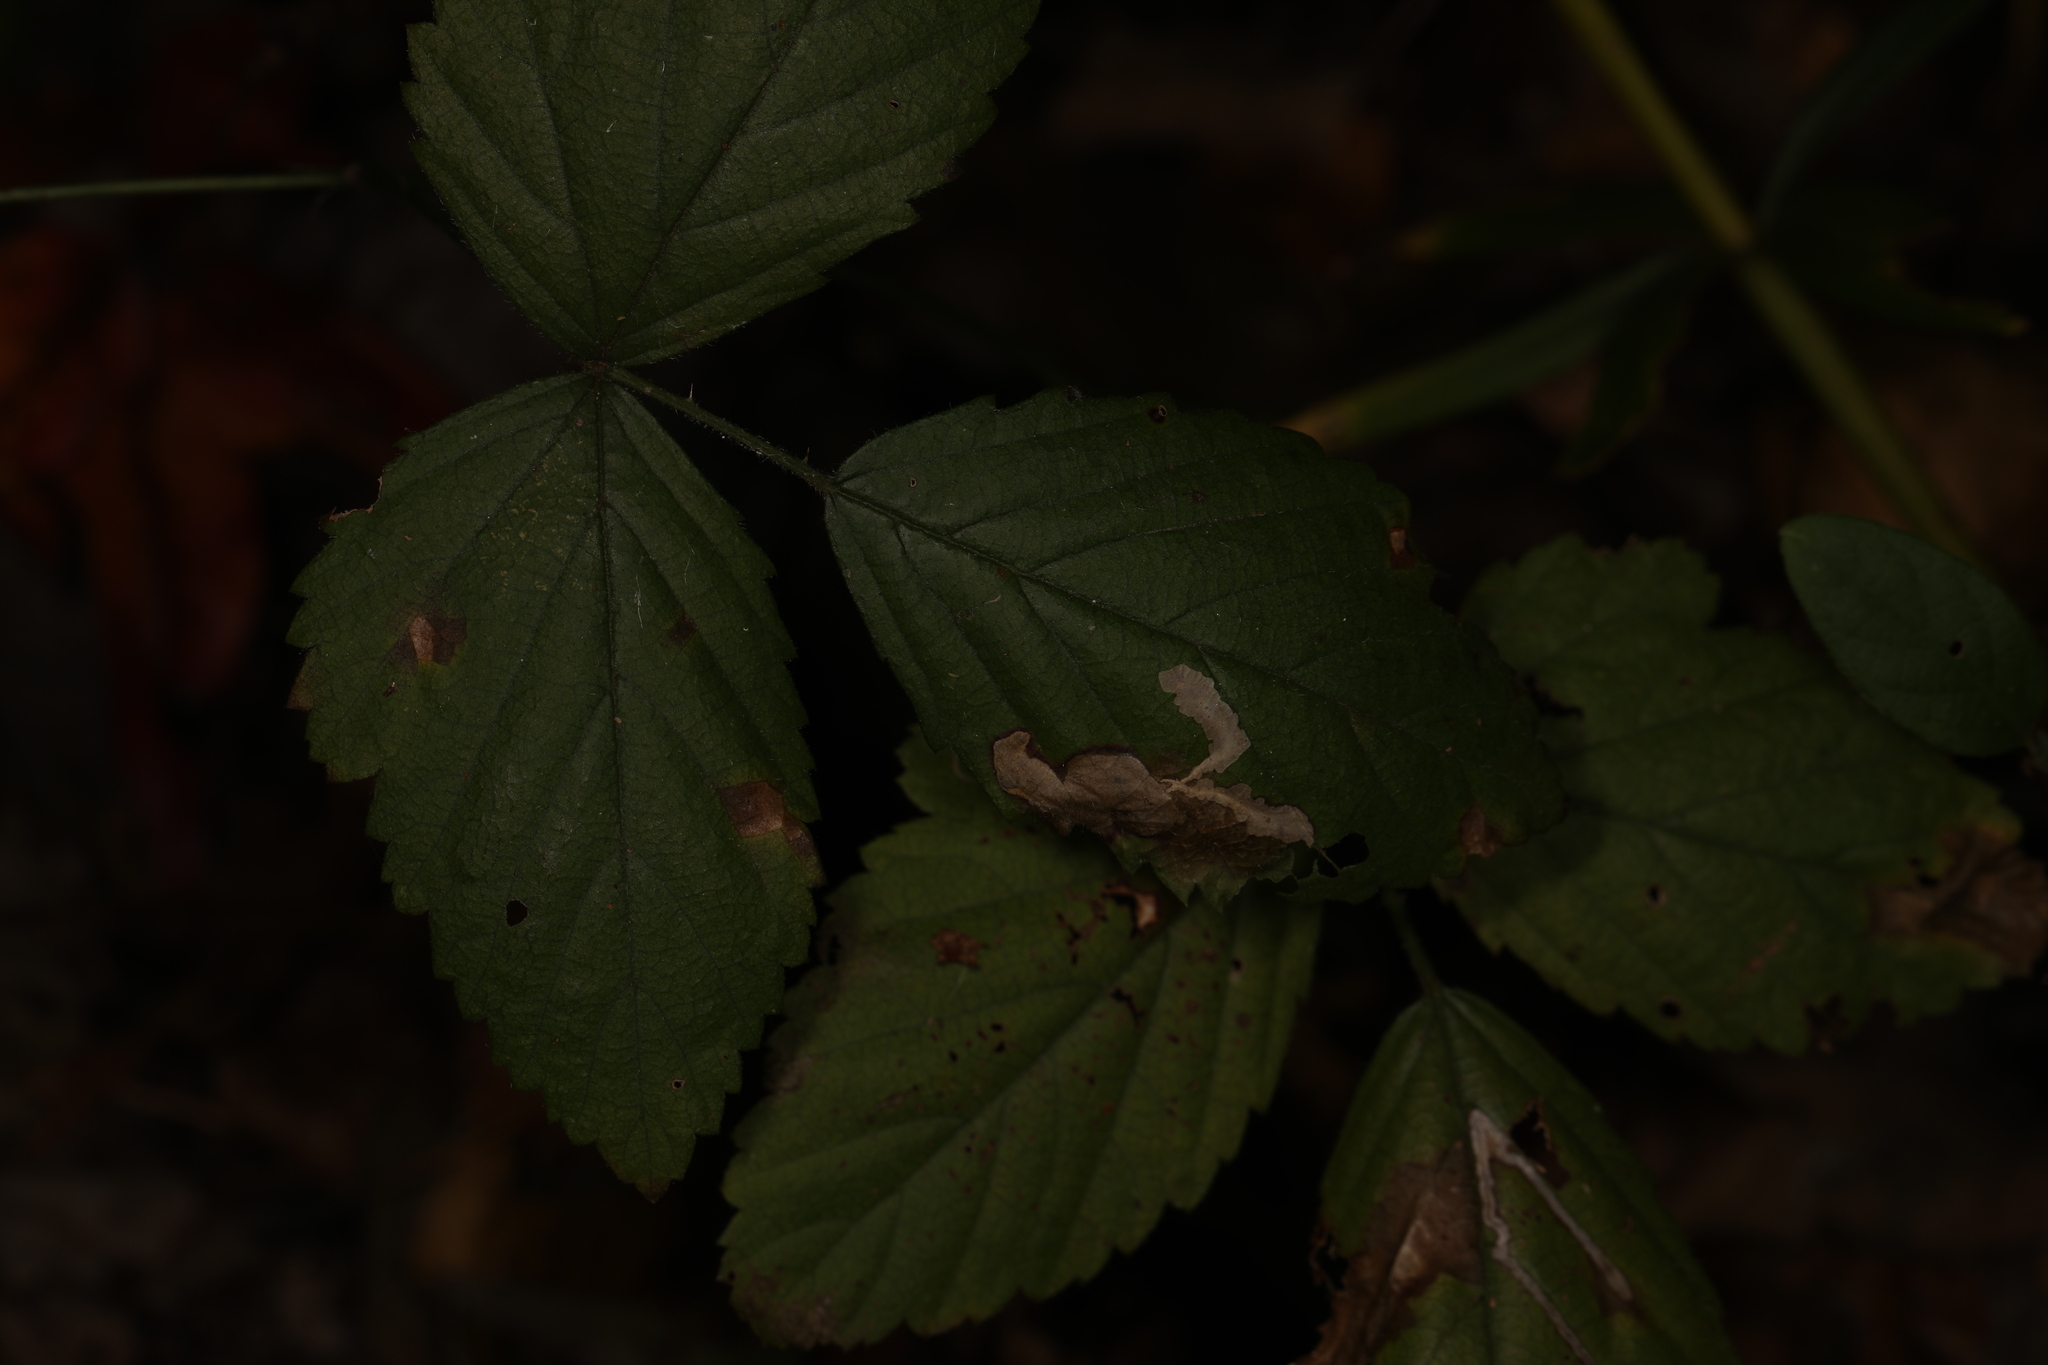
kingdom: Animalia
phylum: Arthropoda
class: Insecta
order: Lepidoptera
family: Tischeriidae
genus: Coptotriche
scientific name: Coptotriche aenea
